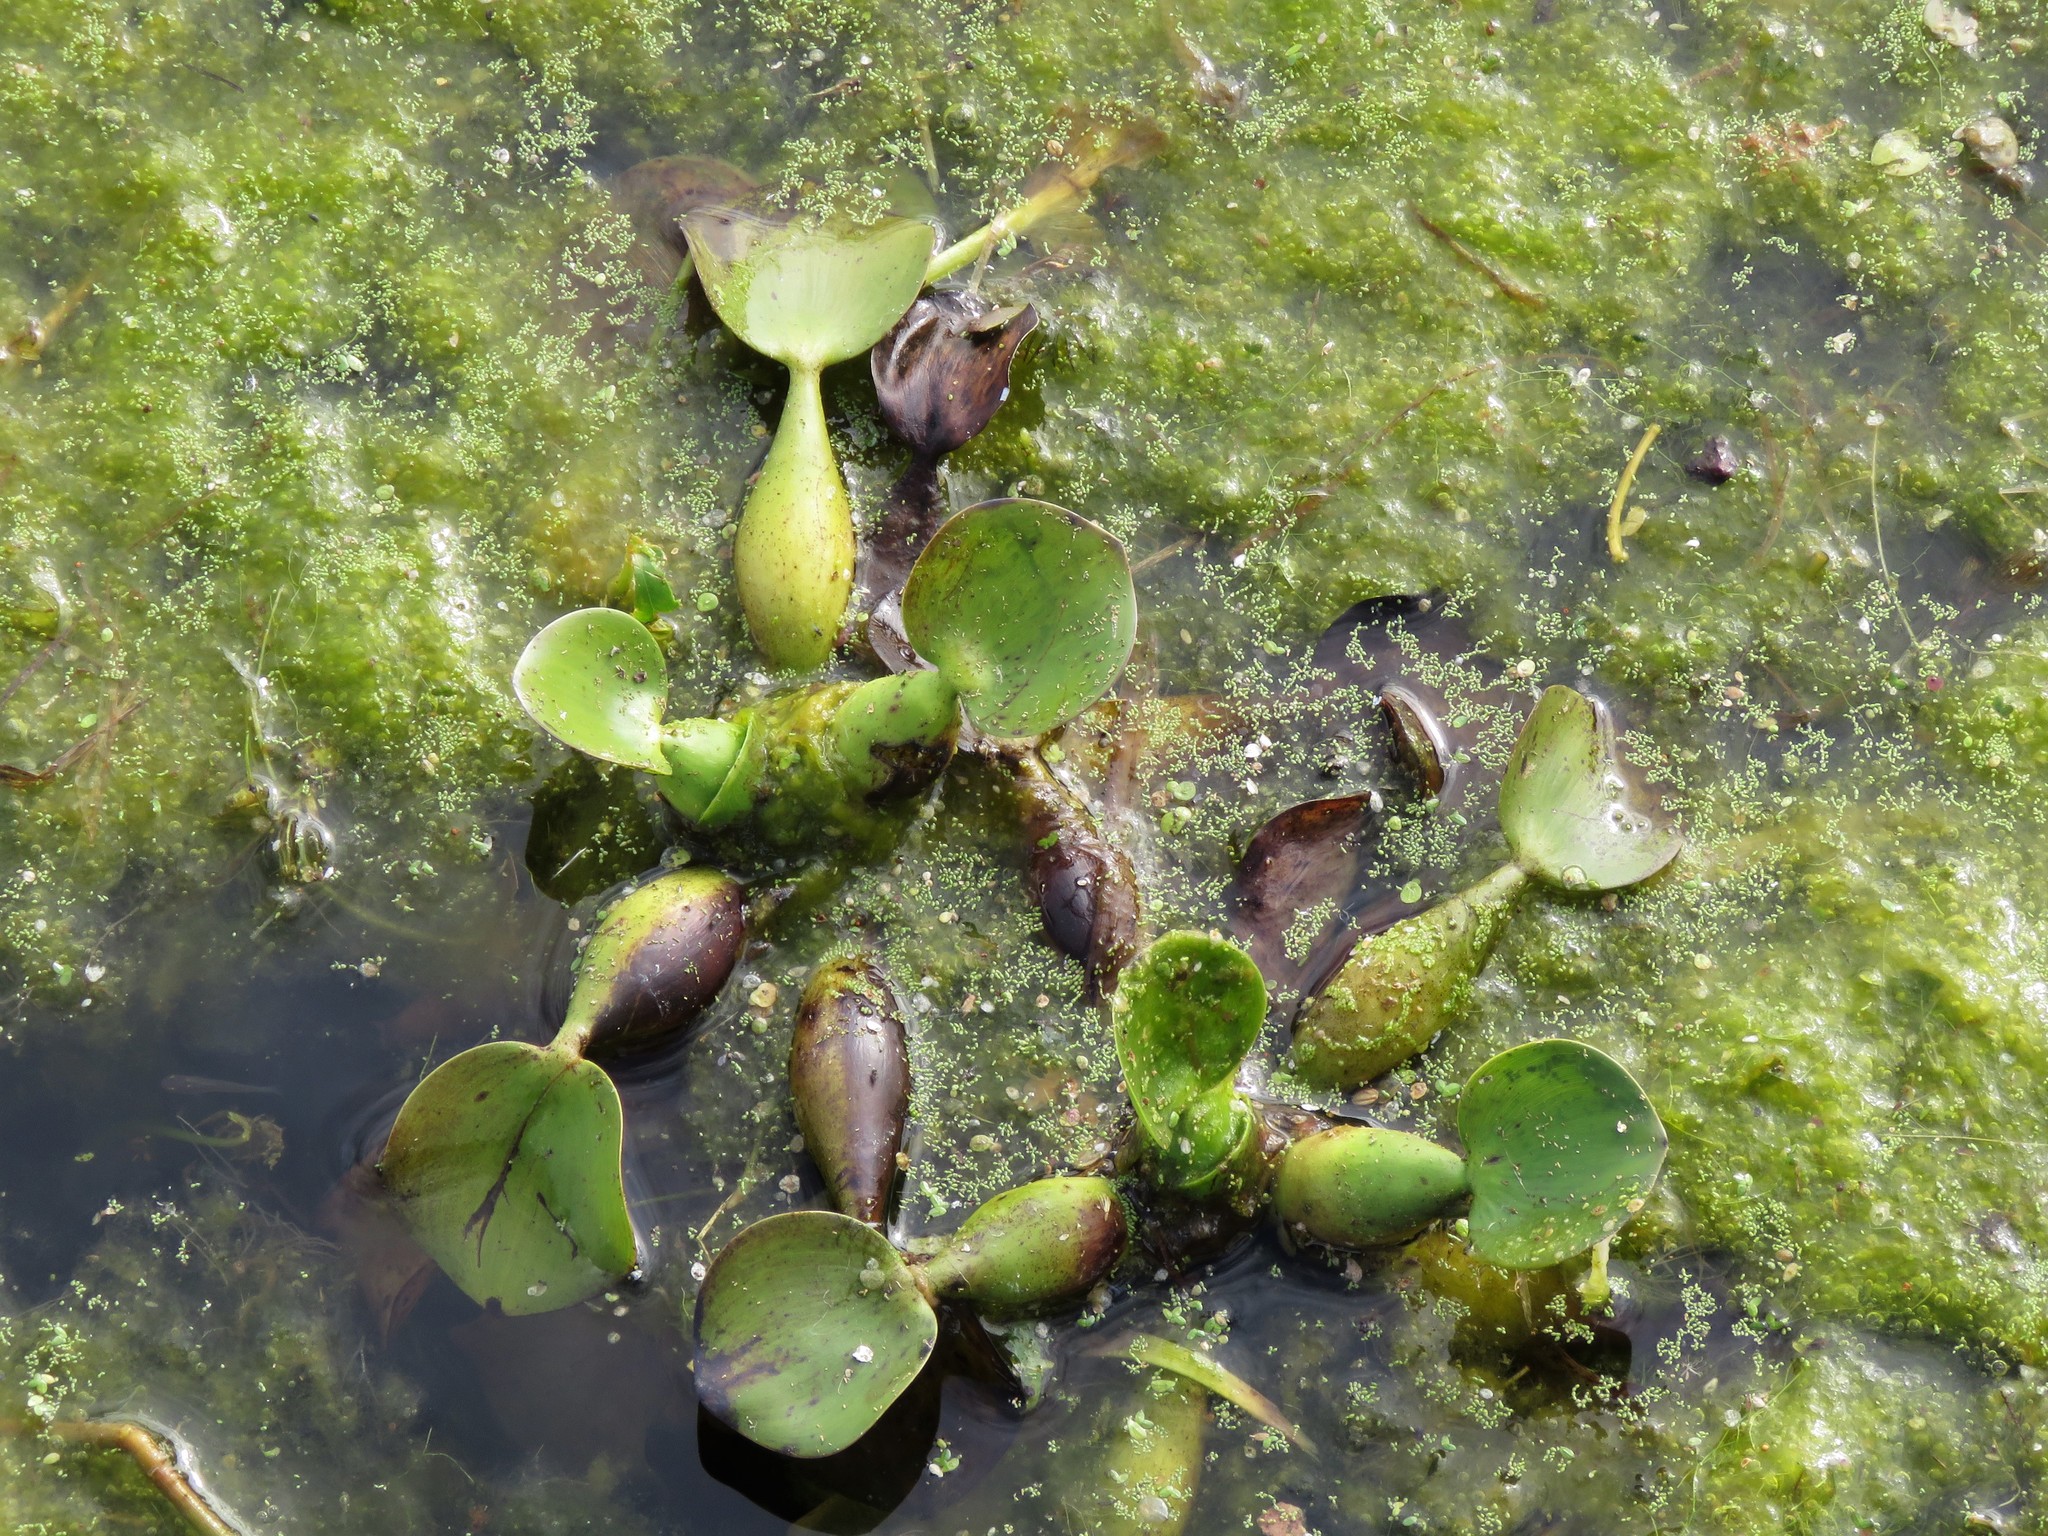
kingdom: Plantae
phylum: Tracheophyta
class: Liliopsida
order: Commelinales
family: Pontederiaceae
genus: Pontederia
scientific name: Pontederia crassipes
